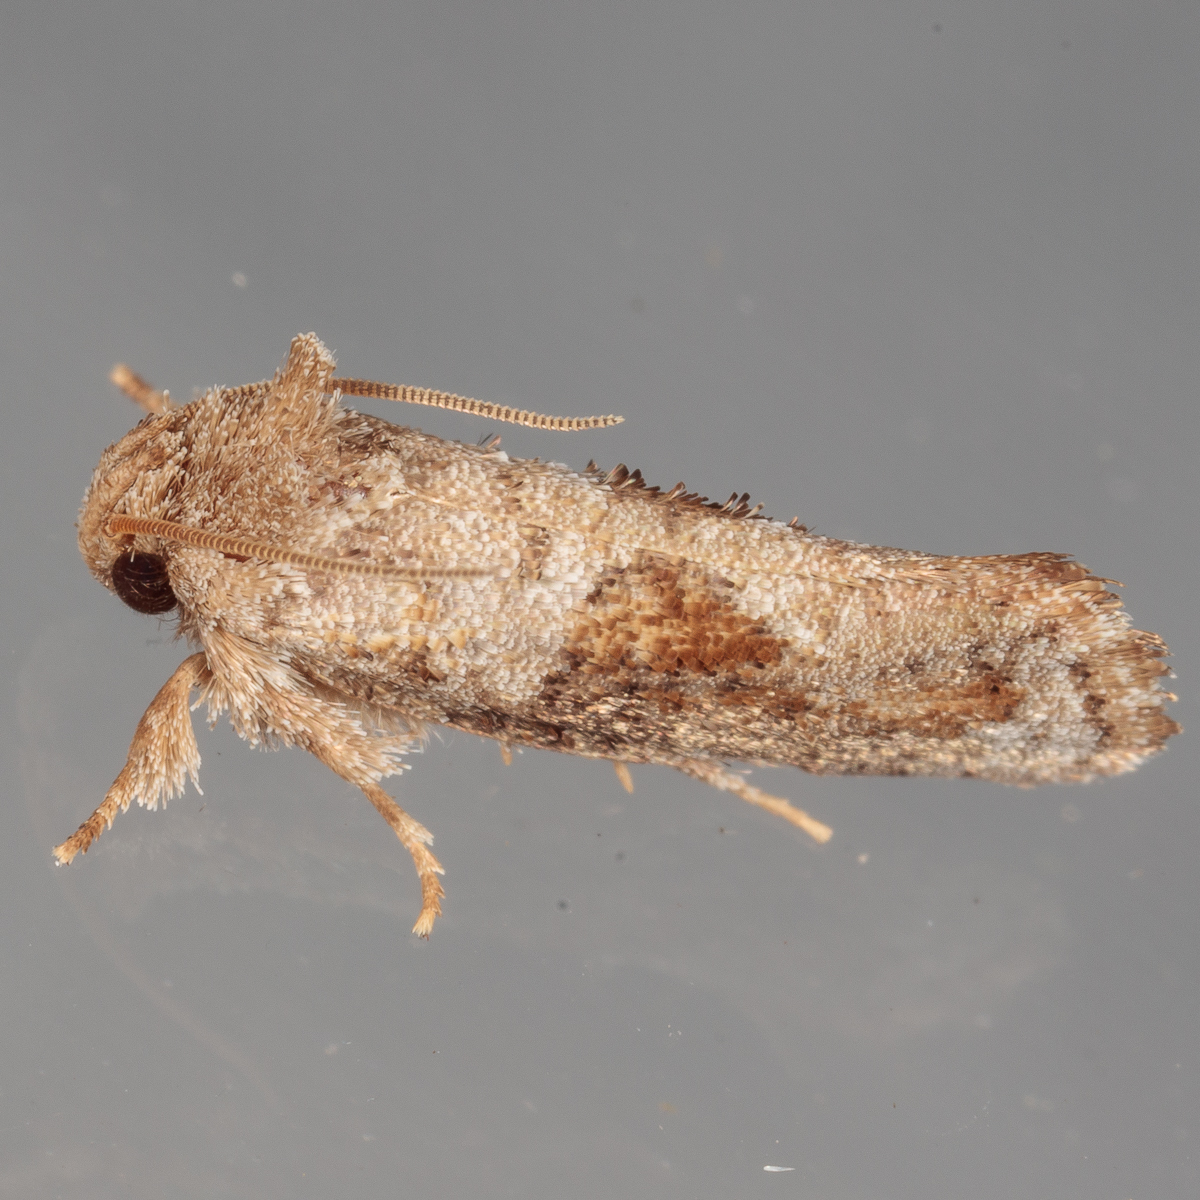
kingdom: Animalia
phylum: Arthropoda
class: Insecta
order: Lepidoptera
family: Tineidae
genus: Acrolophus
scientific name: Acrolophus piger
